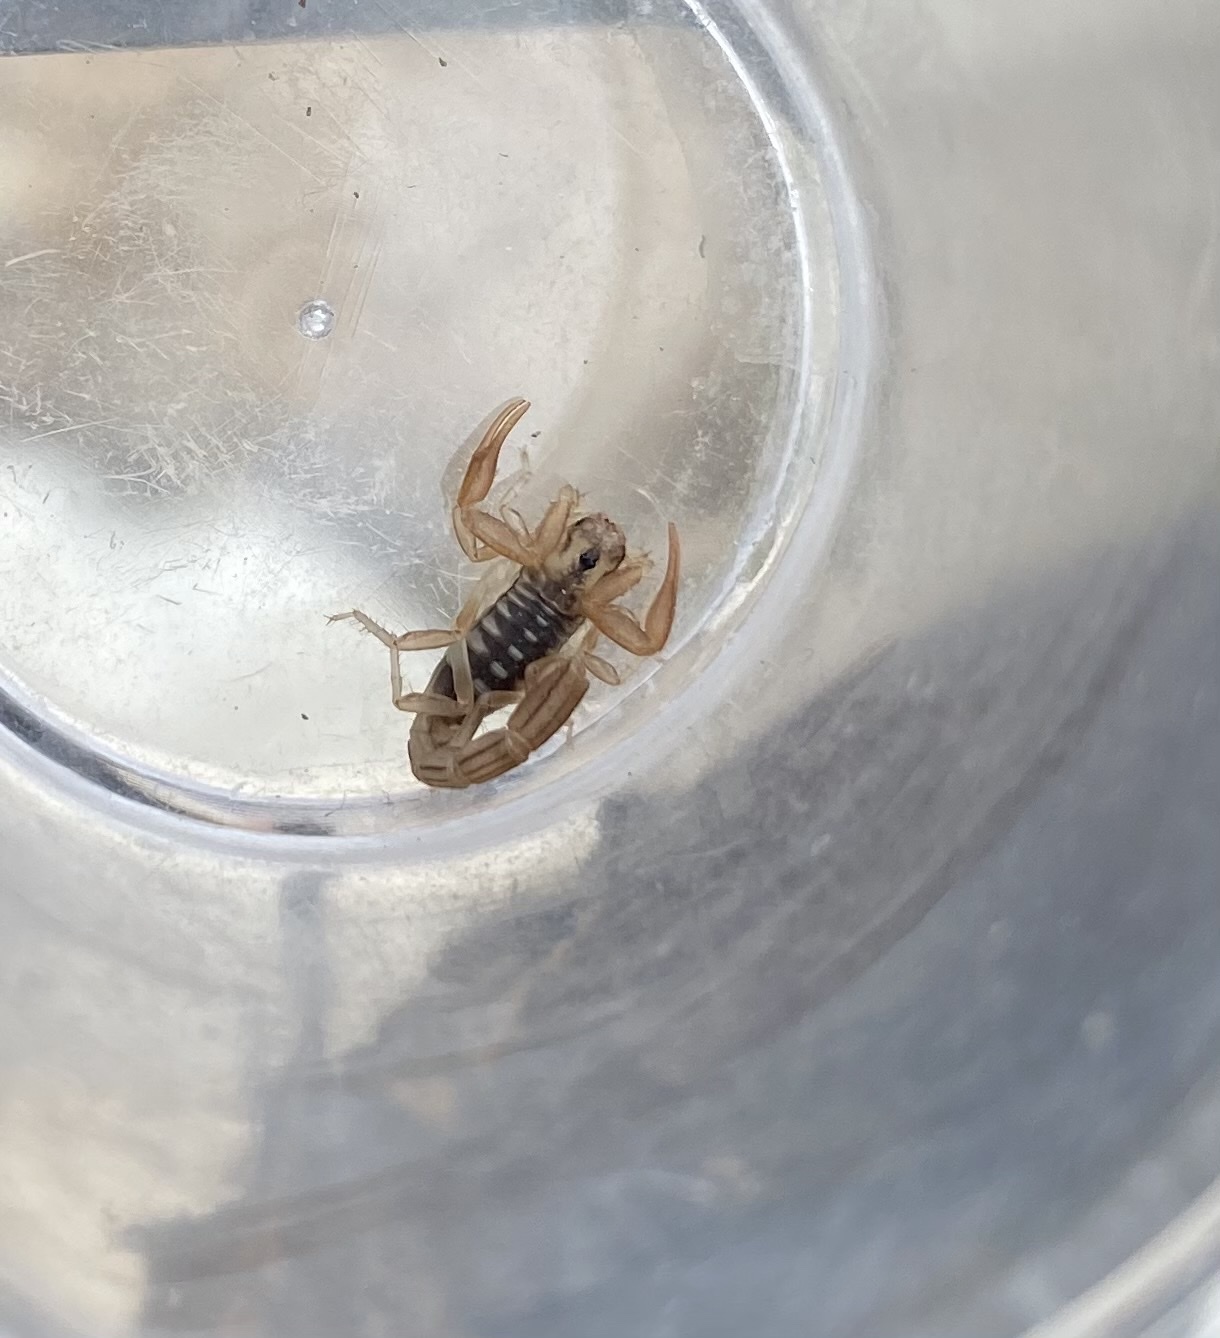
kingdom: Animalia
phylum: Arthropoda
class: Arachnida
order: Scorpiones
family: Vaejovidae
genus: Paravaejovis
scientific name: Paravaejovis spinigerus
